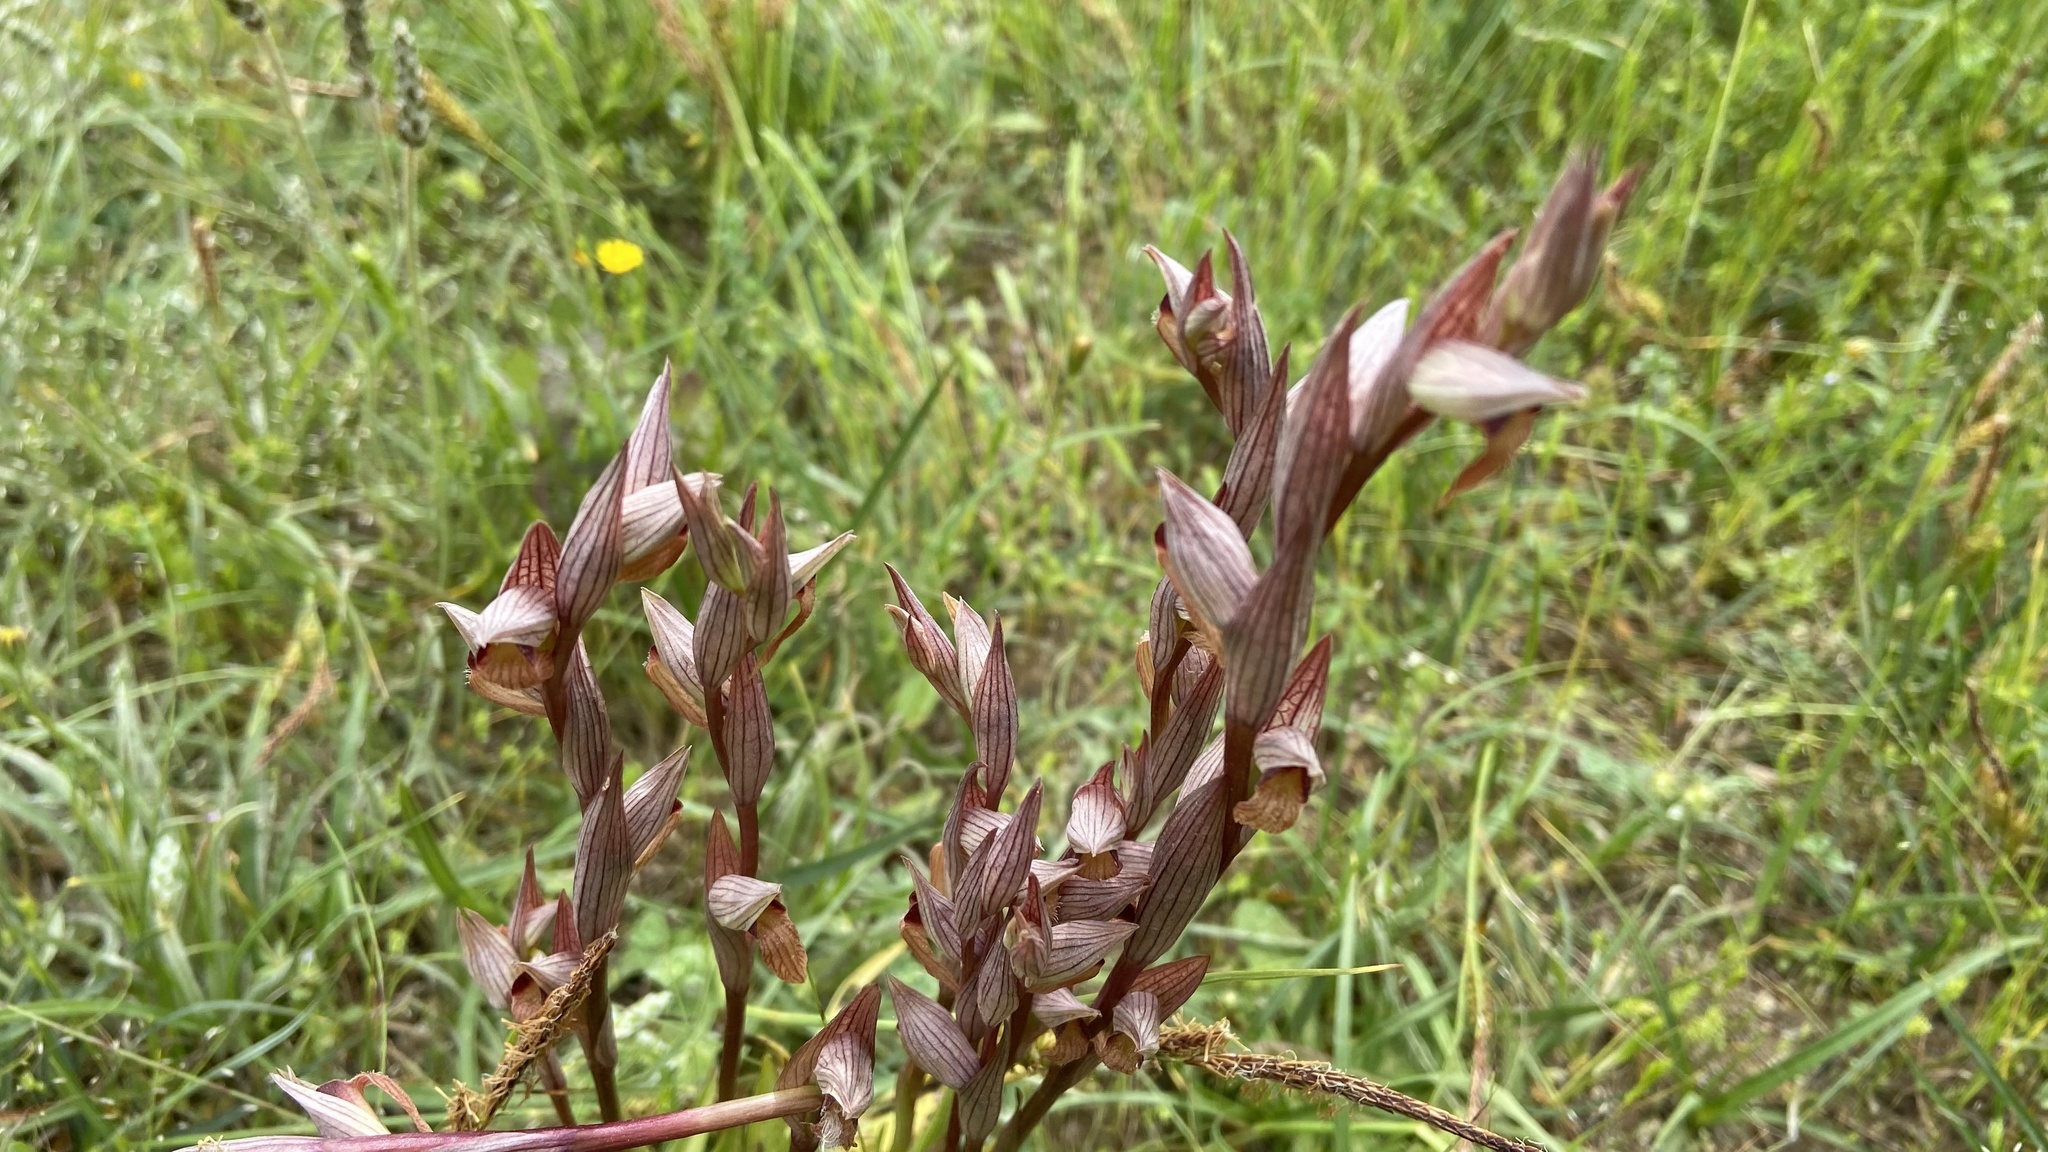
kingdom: Plantae
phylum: Tracheophyta
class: Liliopsida
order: Asparagales
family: Orchidaceae
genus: Serapias
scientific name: Serapias vomeracea
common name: Long-lipped tongue-orchid
